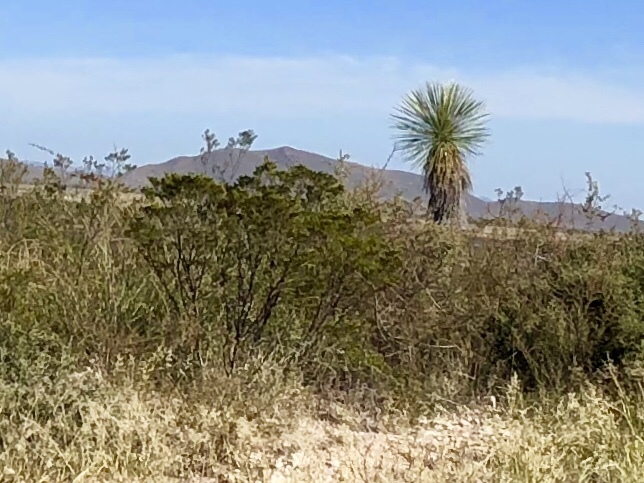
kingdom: Plantae
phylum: Tracheophyta
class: Magnoliopsida
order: Zygophyllales
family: Zygophyllaceae
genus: Larrea
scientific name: Larrea tridentata
